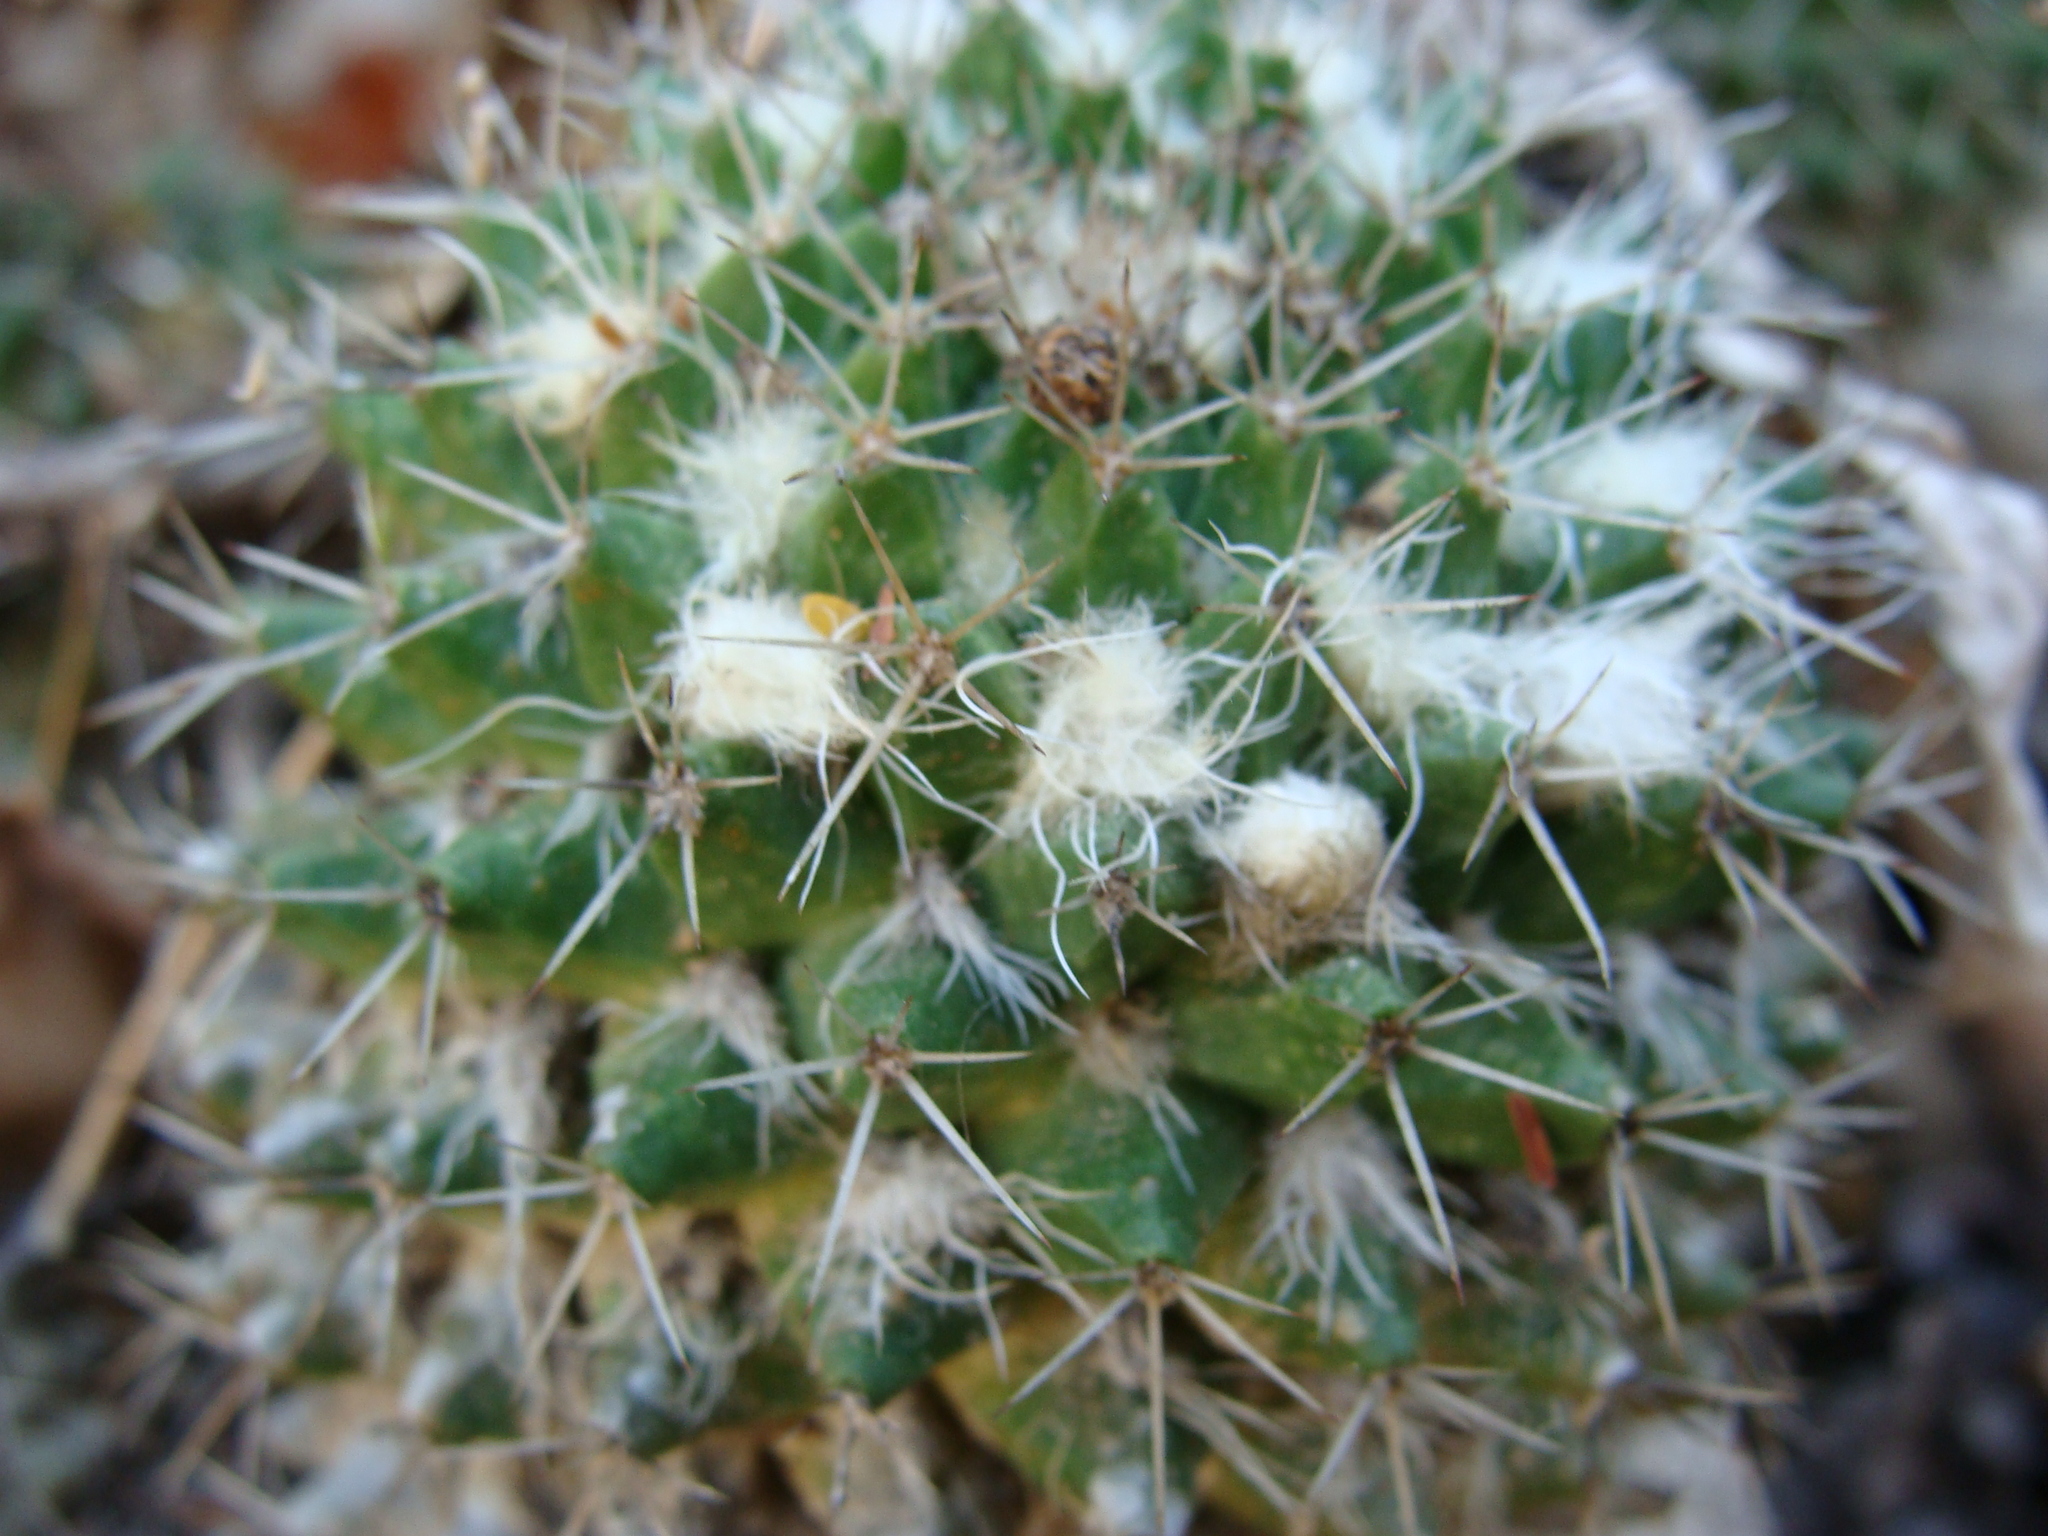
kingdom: Plantae
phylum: Tracheophyta
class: Magnoliopsida
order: Caryophyllales
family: Cactaceae
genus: Mammillaria
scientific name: Mammillaria karwinskiana
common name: Royal cross
